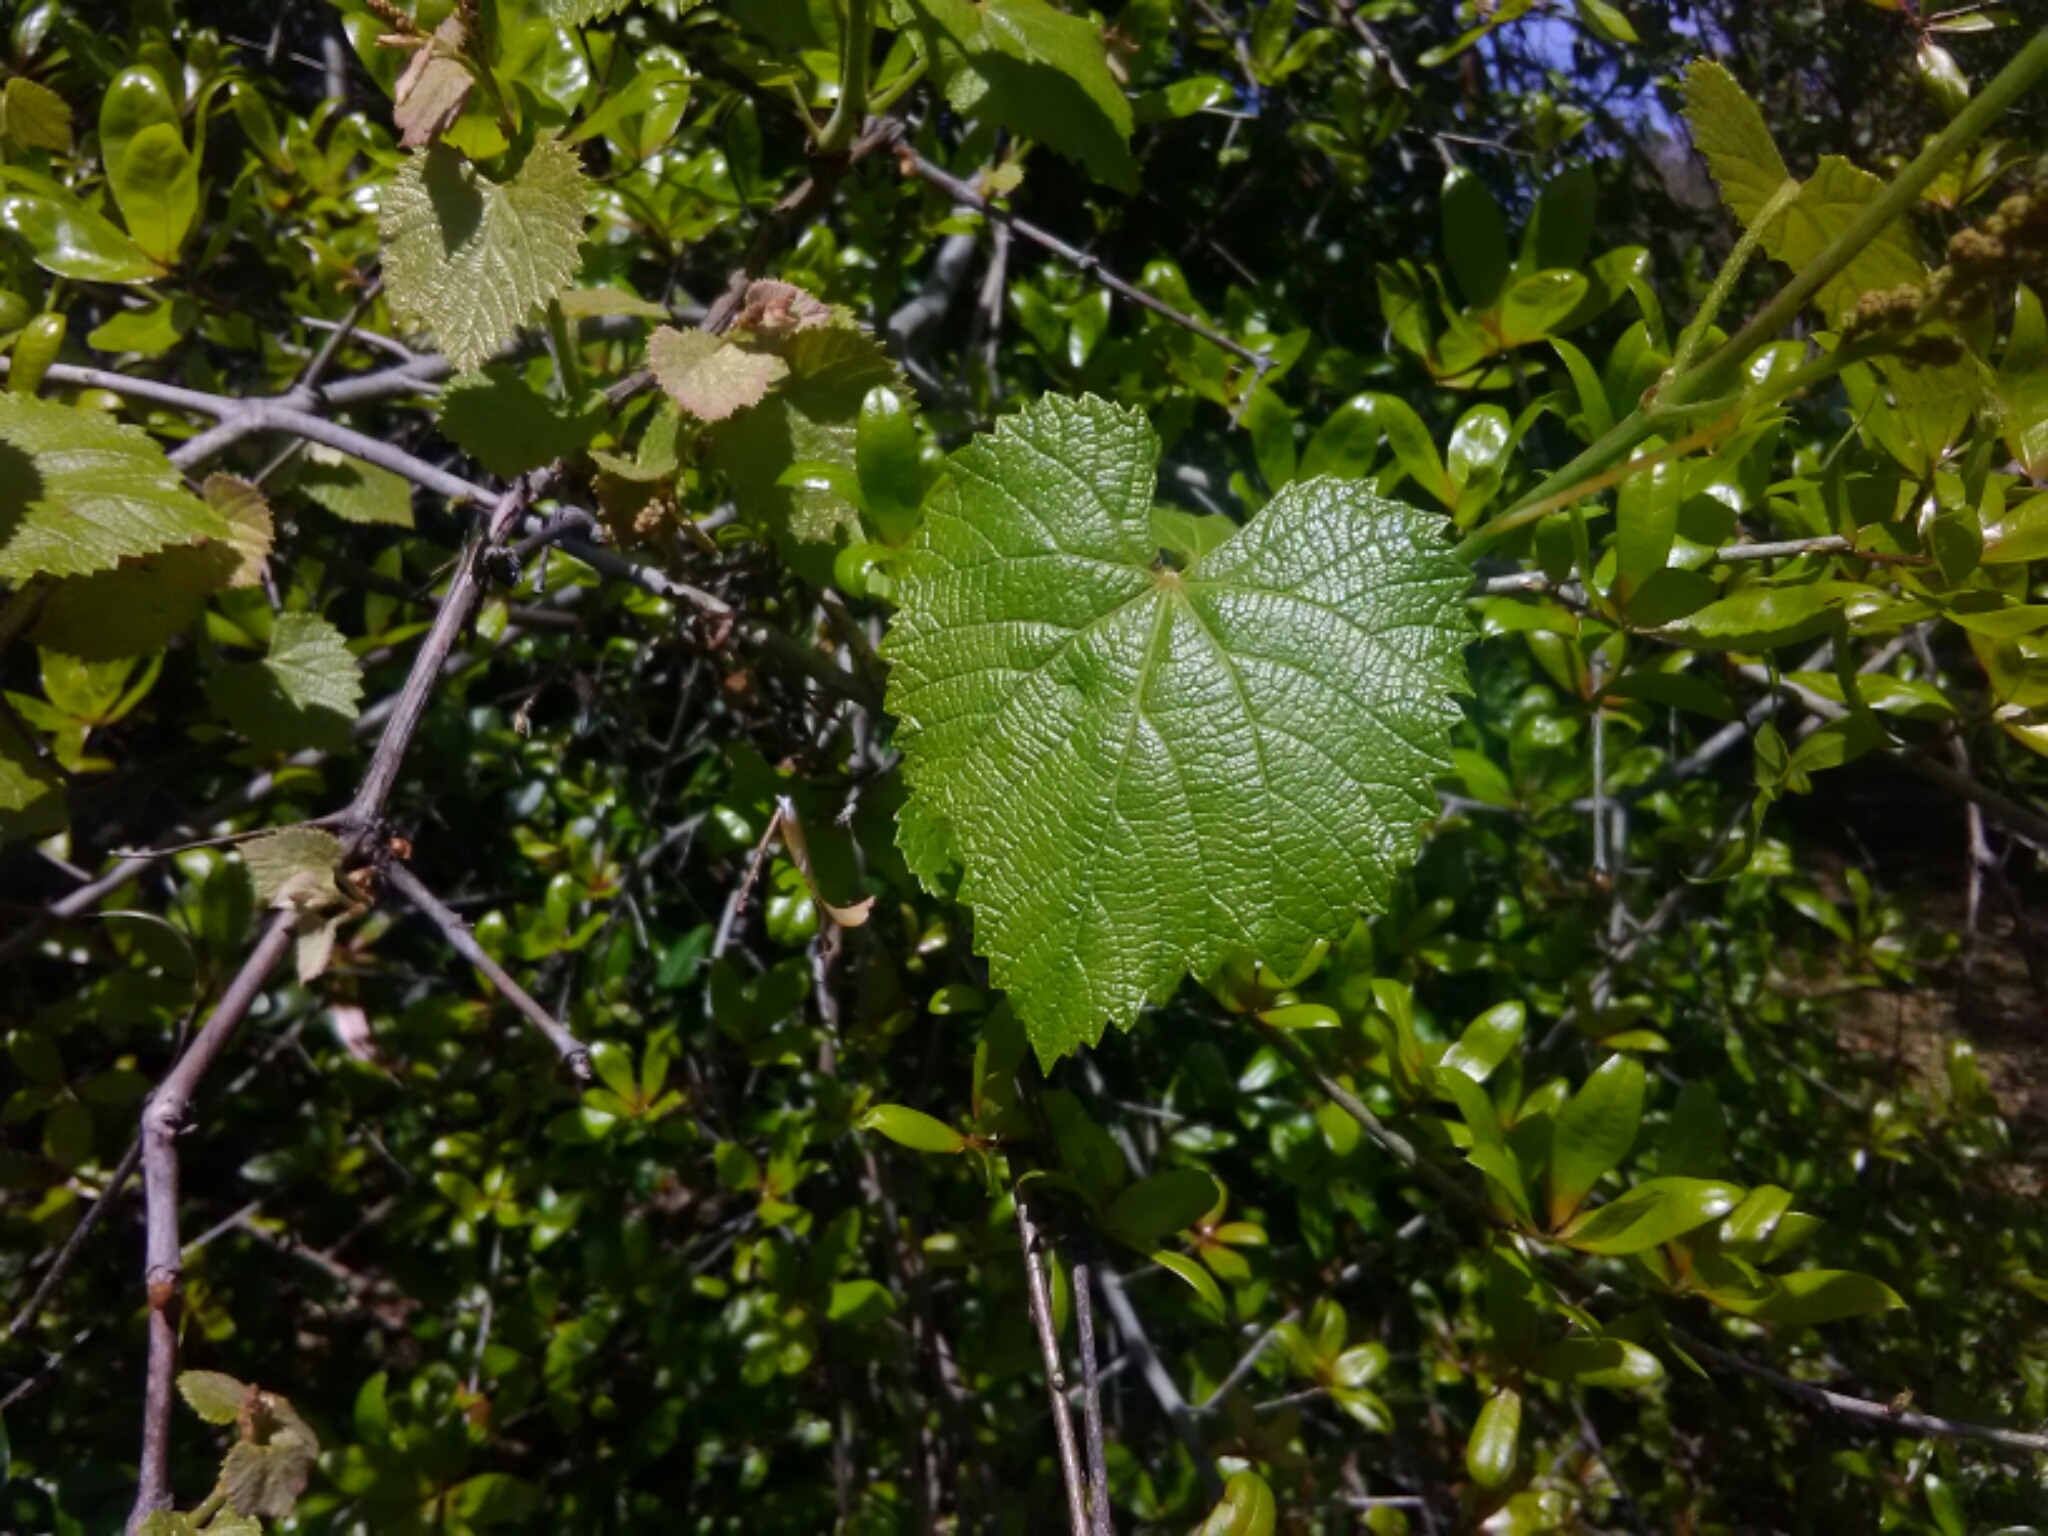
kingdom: Plantae
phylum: Tracheophyta
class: Magnoliopsida
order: Vitales
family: Vitaceae
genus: Vitis
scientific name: Vitis rotundifolia
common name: Muscadine grape
